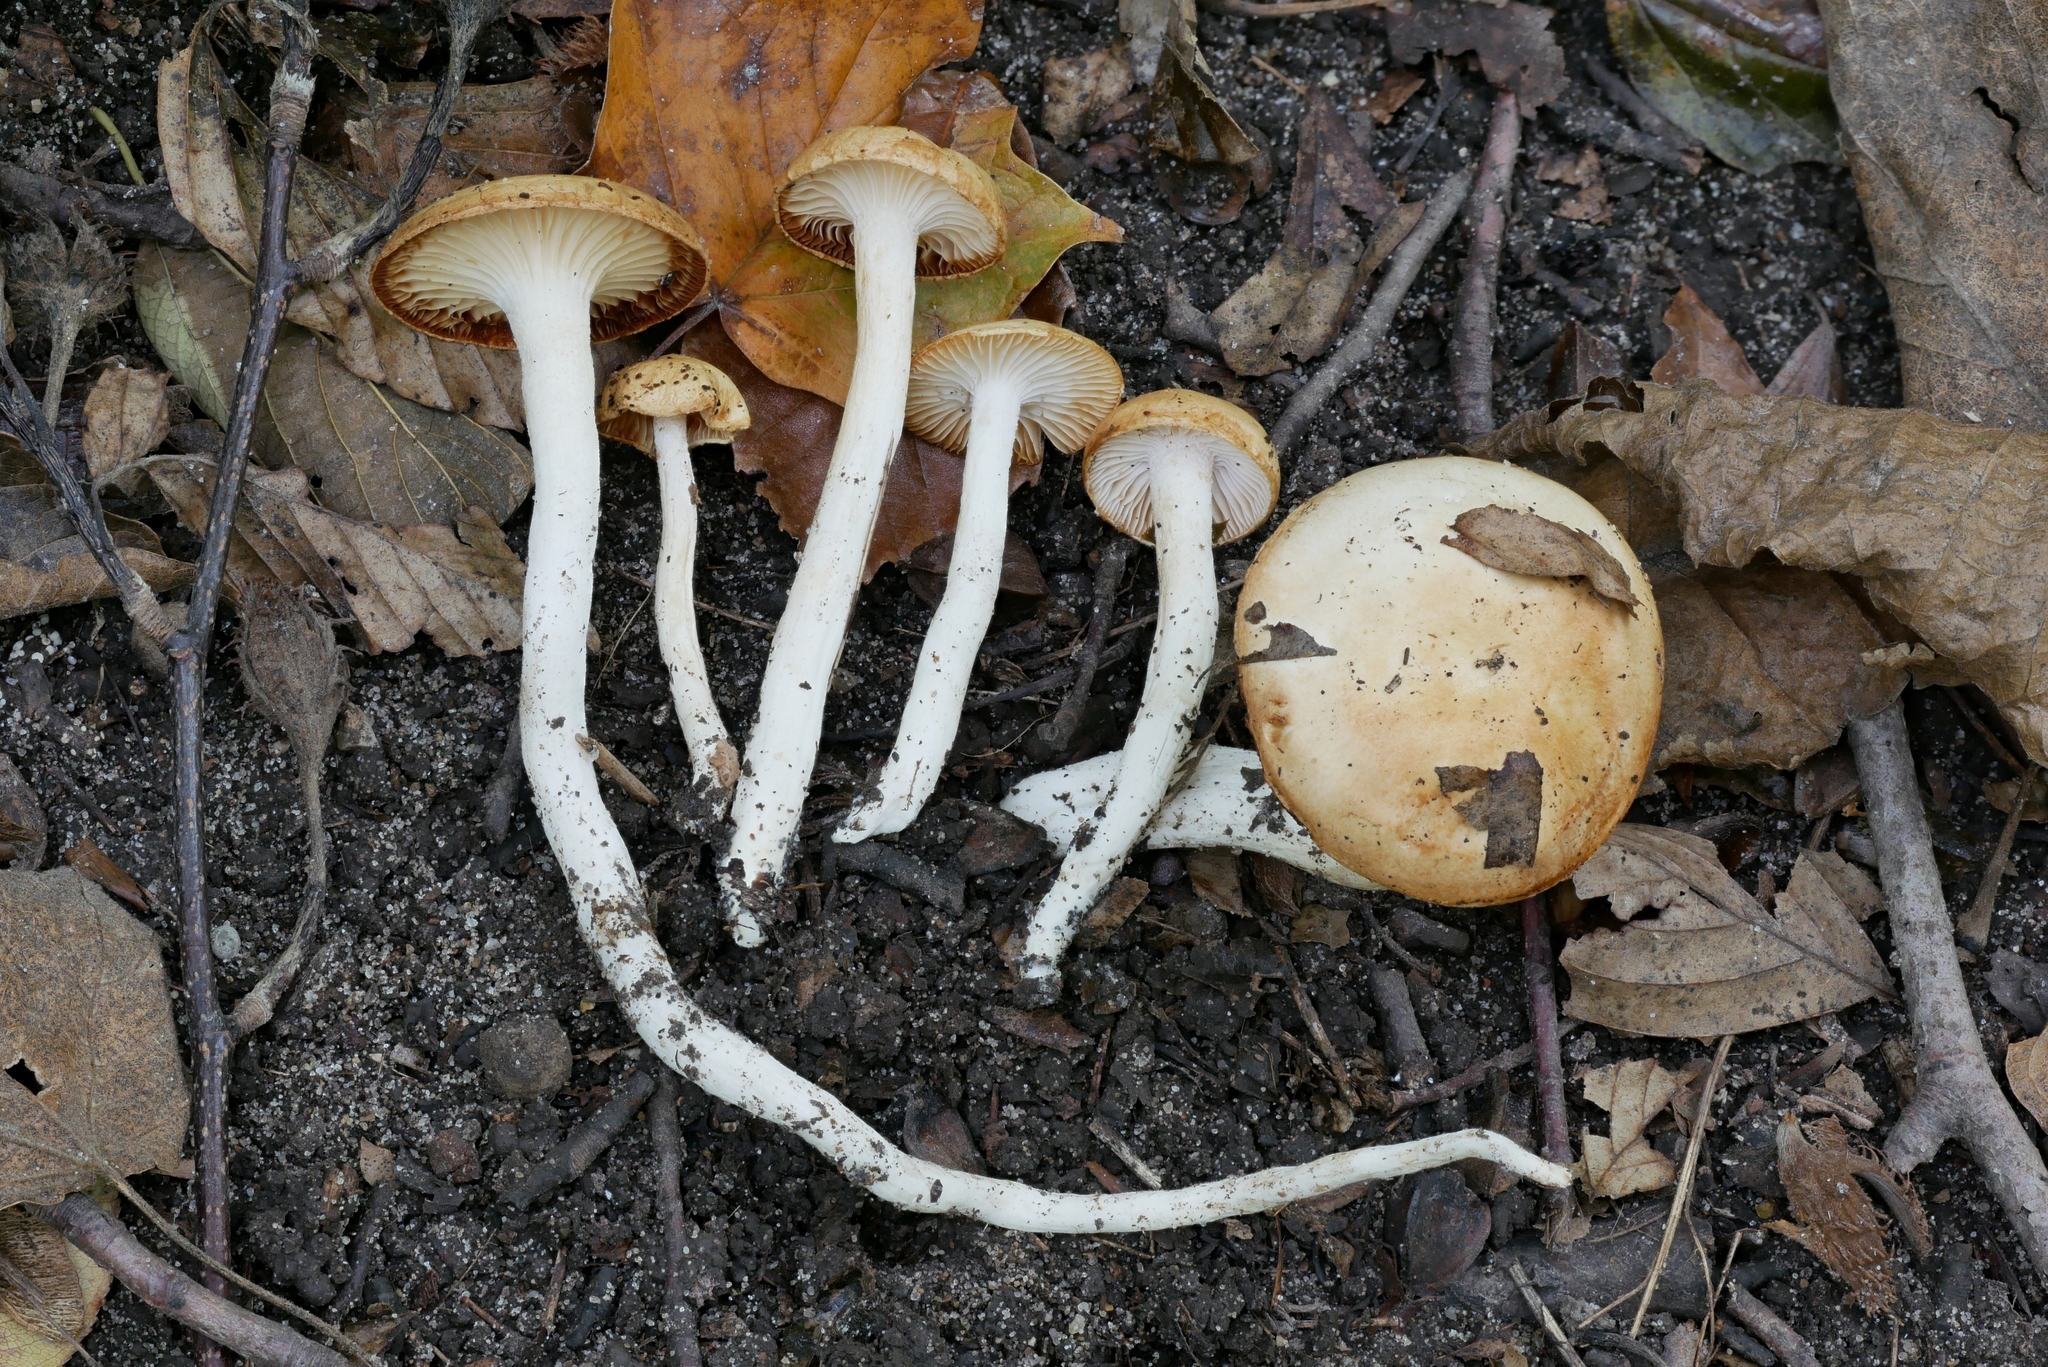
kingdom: Fungi
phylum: Basidiomycota
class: Agaricomycetes
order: Agaricales
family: Hygrophoraceae
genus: Hygrophorus
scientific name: Hygrophorus discoxanthus
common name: Yellowing woodwax
